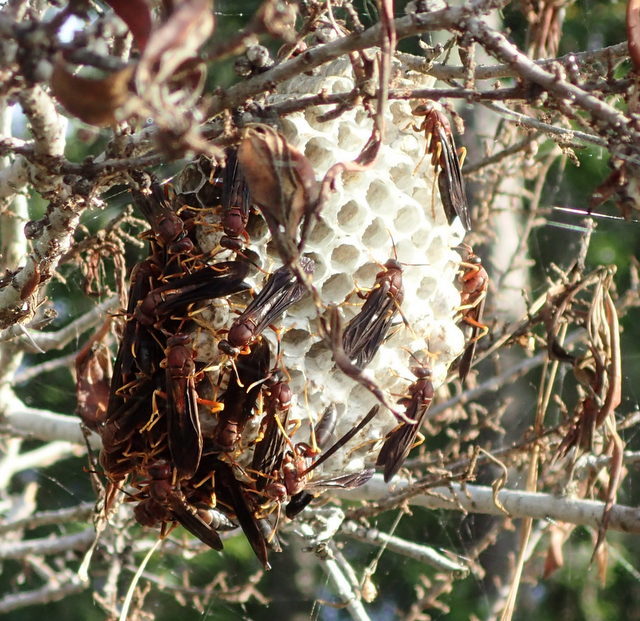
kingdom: Animalia
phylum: Arthropoda
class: Insecta
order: Hymenoptera
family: Eumenidae
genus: Polistes
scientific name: Polistes annularis
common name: Ringed paper wasp
